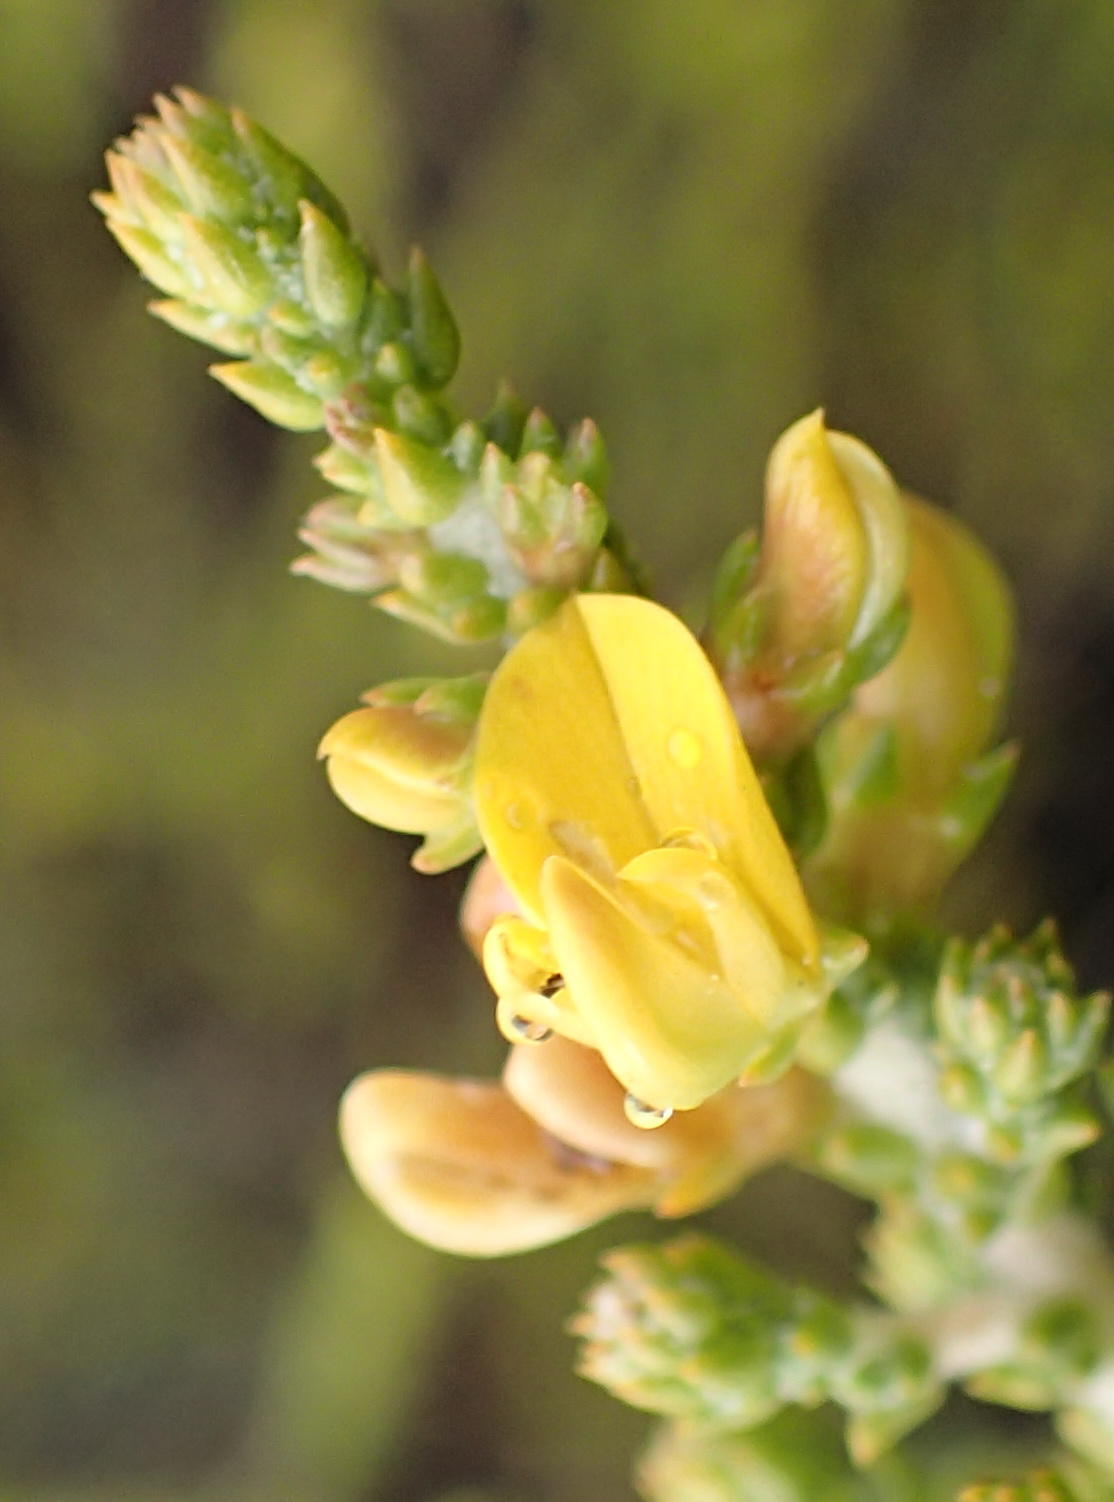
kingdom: Plantae
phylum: Tracheophyta
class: Magnoliopsida
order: Fabales
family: Fabaceae
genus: Aspalathus
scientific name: Aspalathus pinguis
